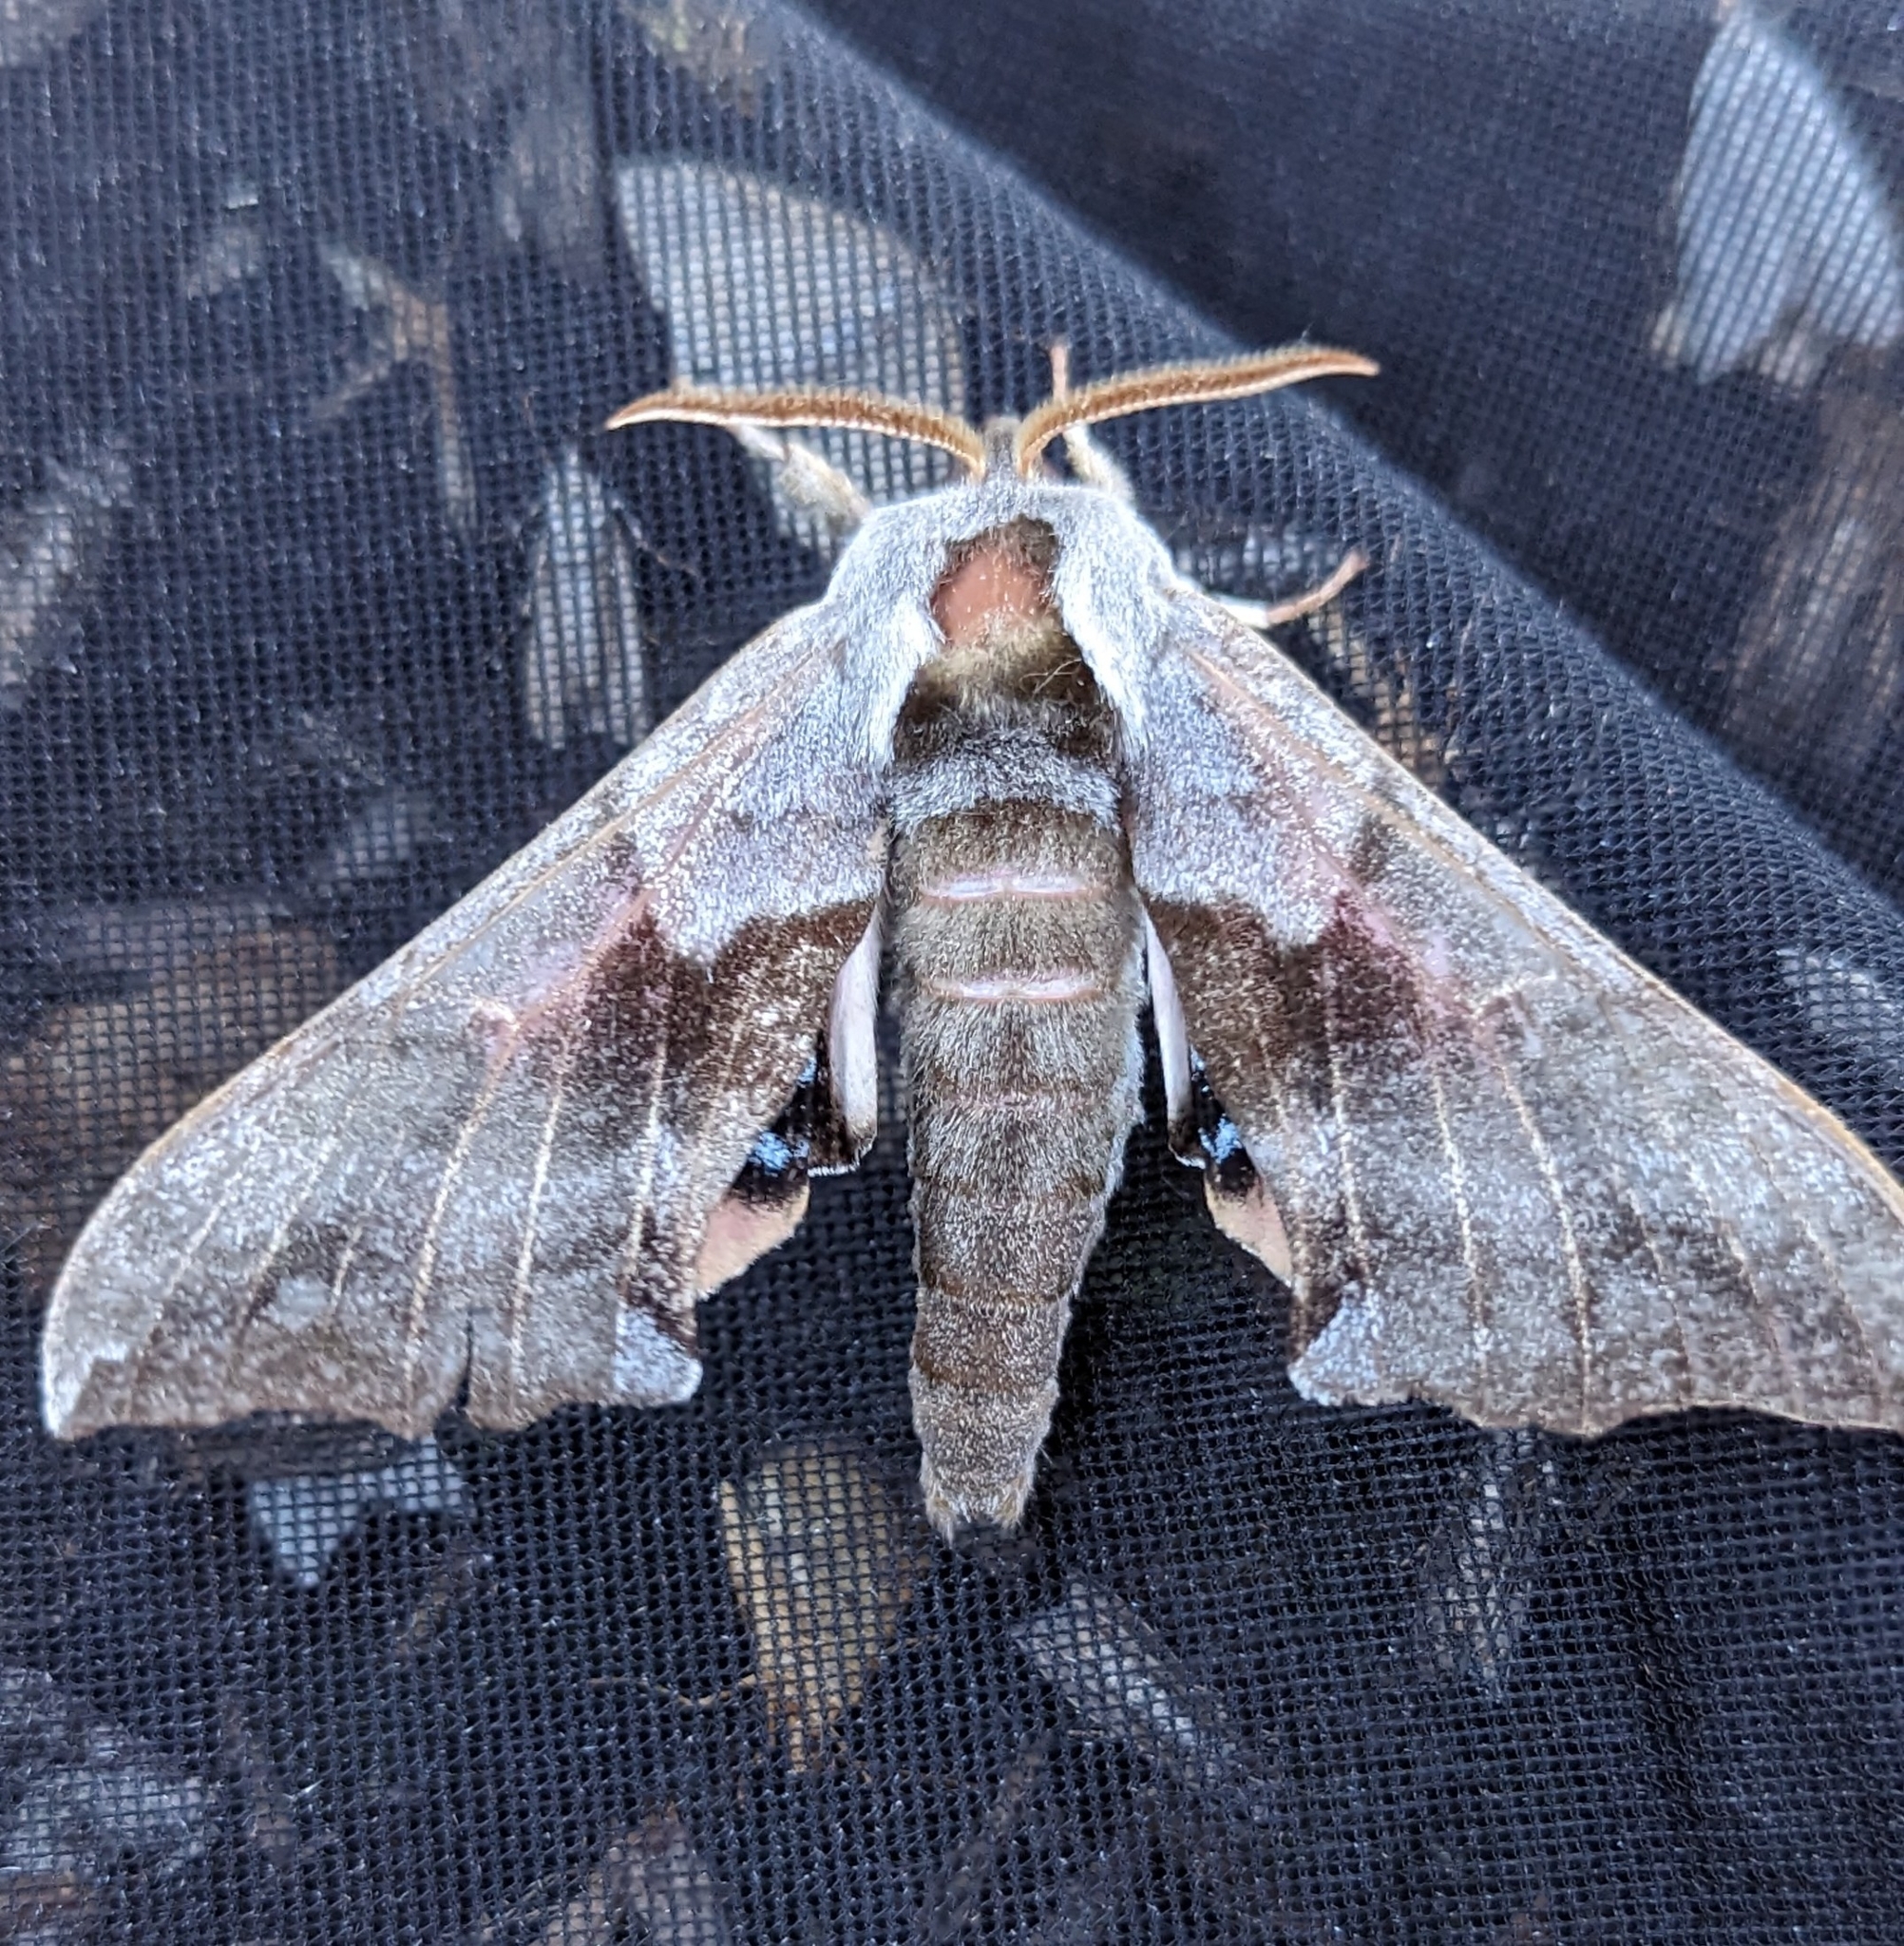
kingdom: Animalia
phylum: Arthropoda
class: Insecta
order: Lepidoptera
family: Sphingidae
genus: Smerinthus
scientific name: Smerinthus cerisyi
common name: Cerisy's sphinx moth
